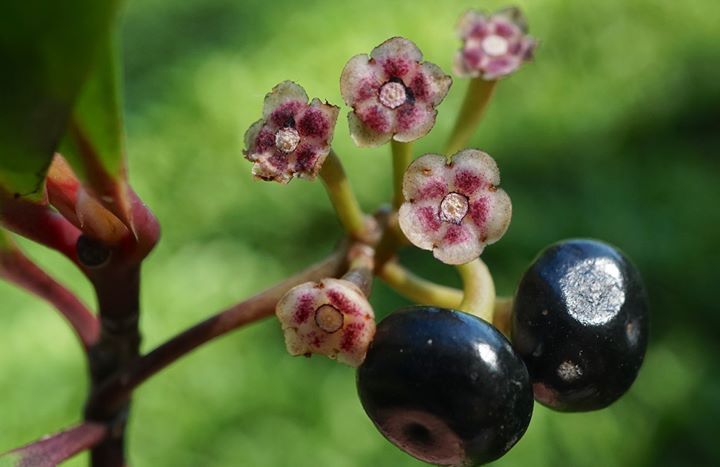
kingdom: Plantae
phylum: Tracheophyta
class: Magnoliopsida
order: Ericales
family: Primulaceae
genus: Ardisia
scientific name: Ardisia elliptica
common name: Shoebutton
